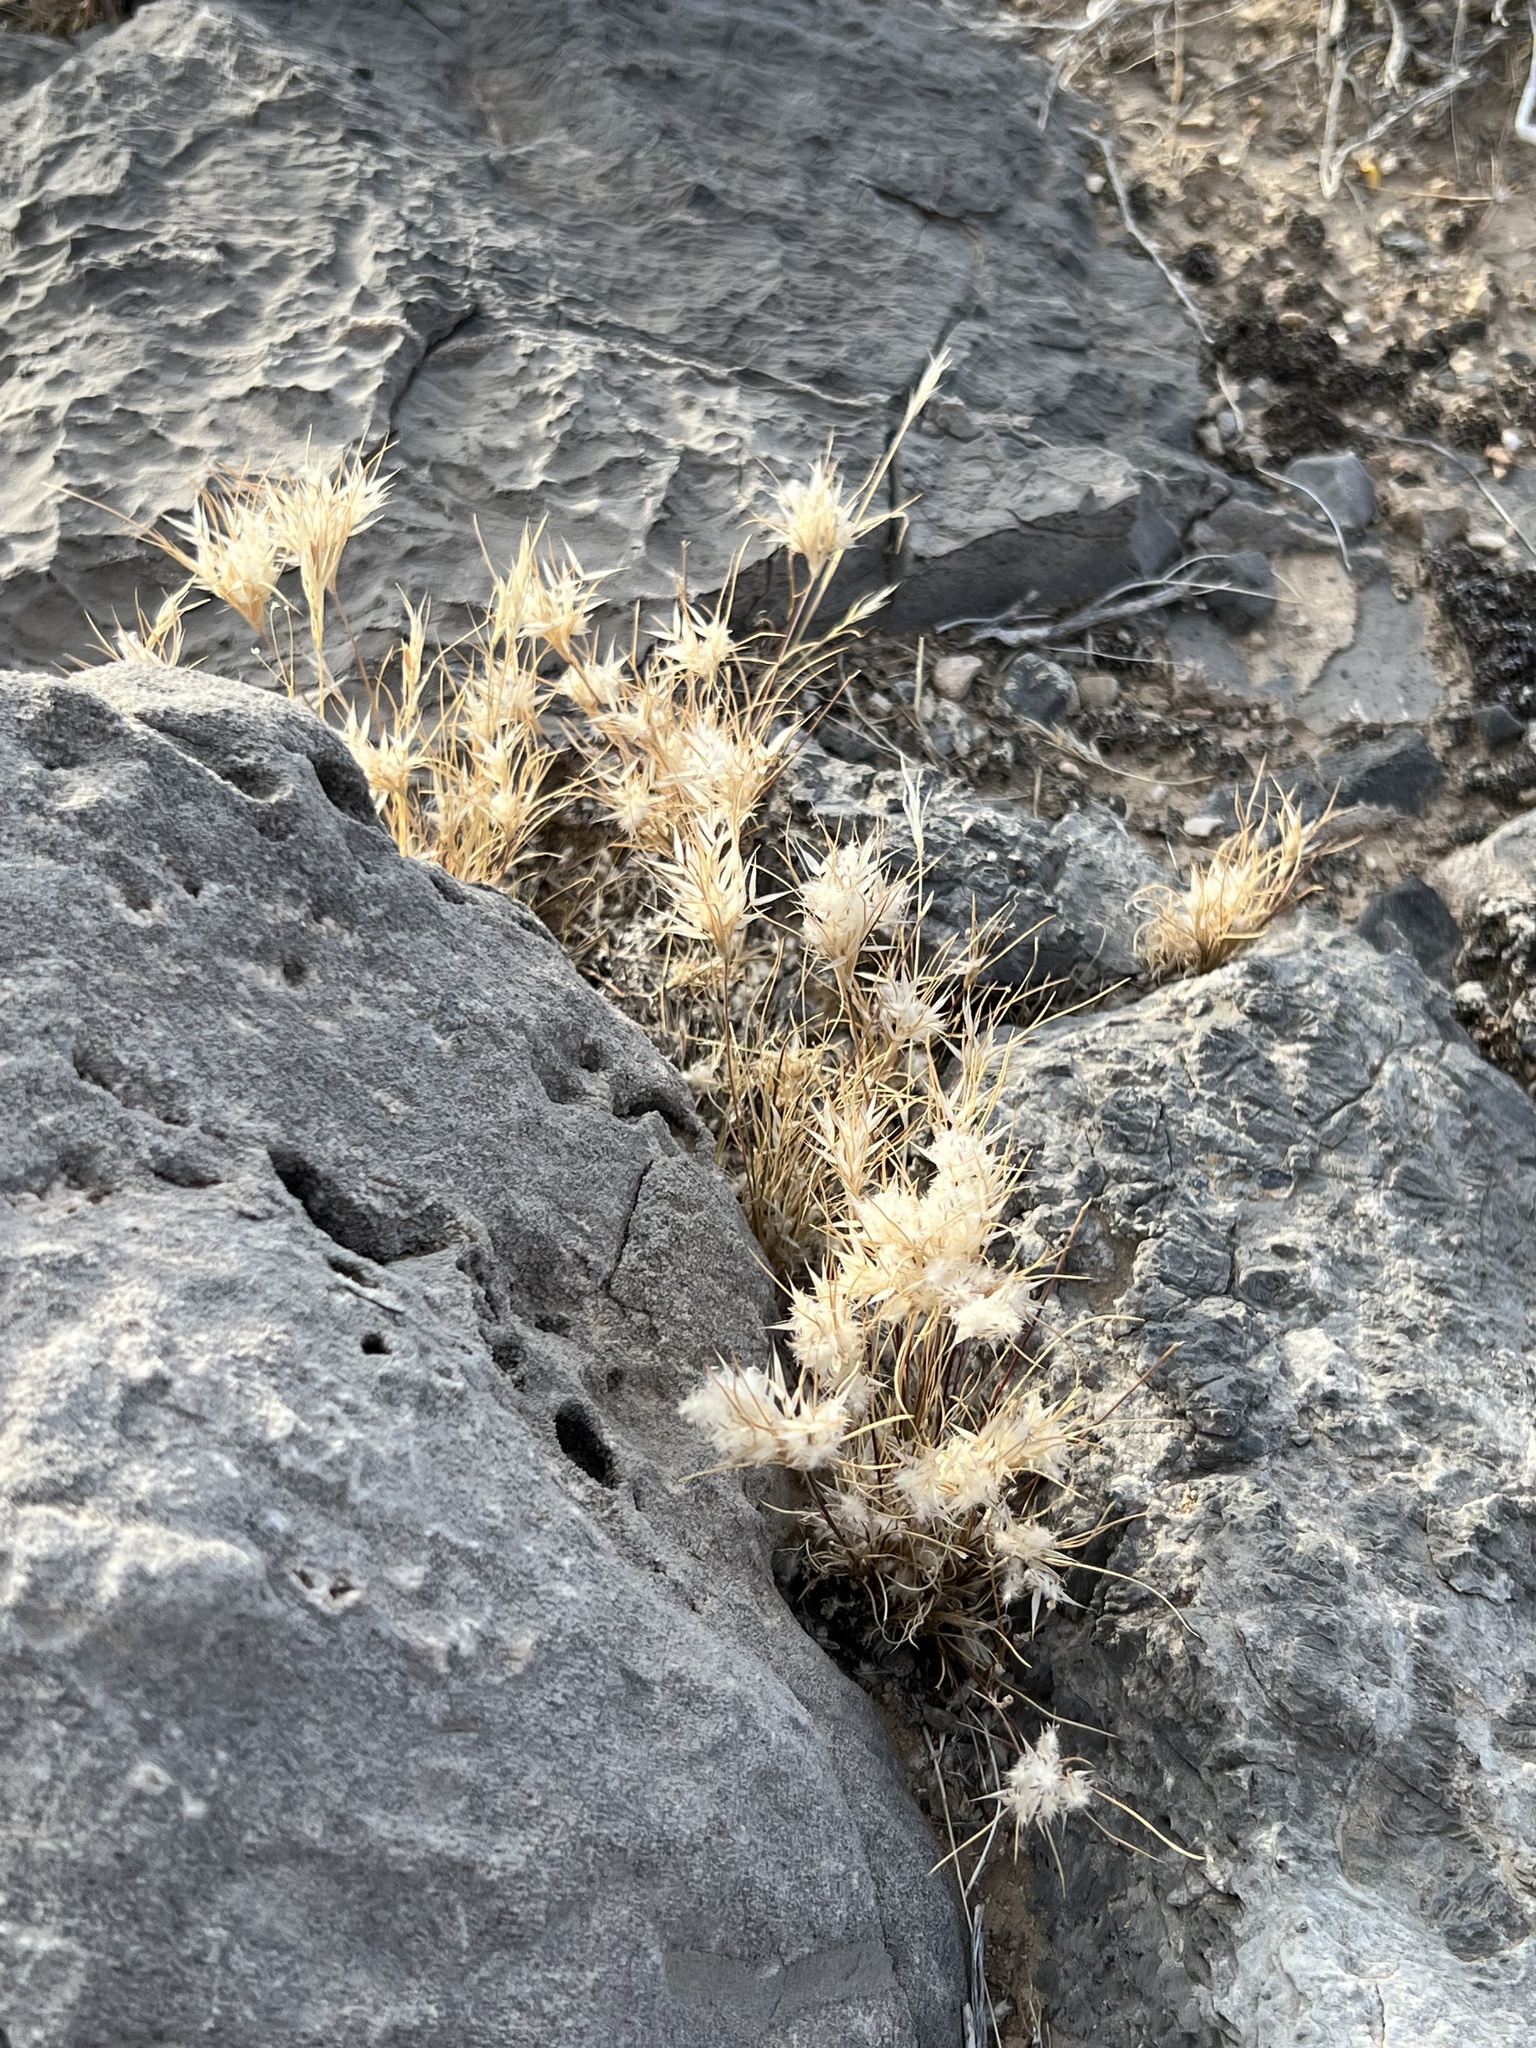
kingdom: Plantae
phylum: Tracheophyta
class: Liliopsida
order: Poales
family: Poaceae
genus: Dasyochloa
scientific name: Dasyochloa pulchella
